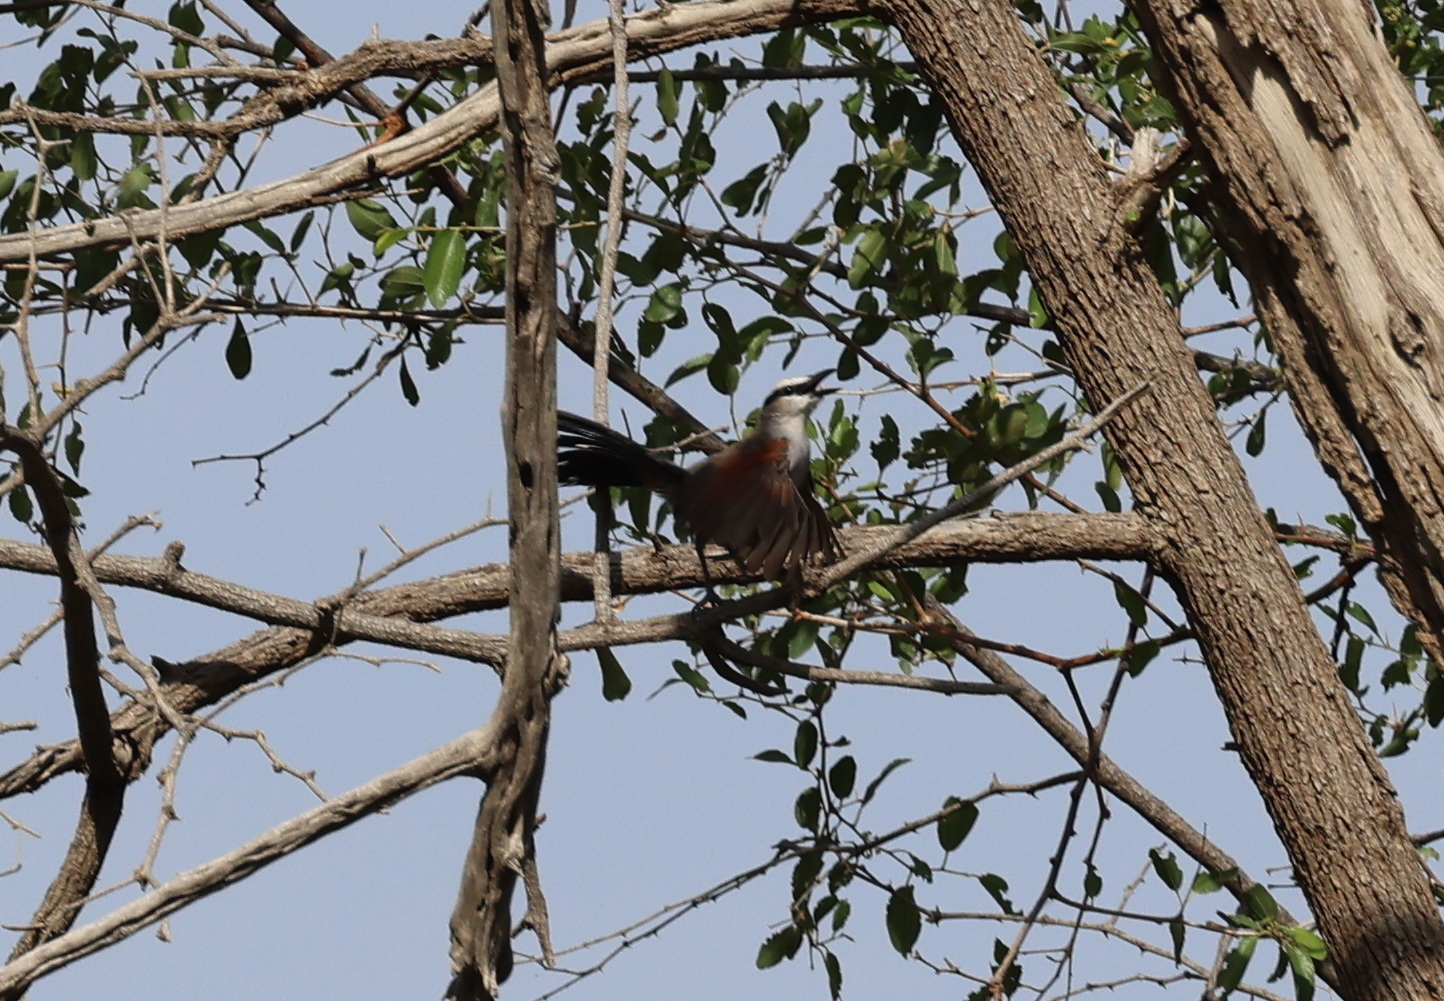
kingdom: Animalia
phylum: Chordata
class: Aves
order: Passeriformes
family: Malaconotidae
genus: Tchagra
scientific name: Tchagra senegalus
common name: Black-crowned tchagra
